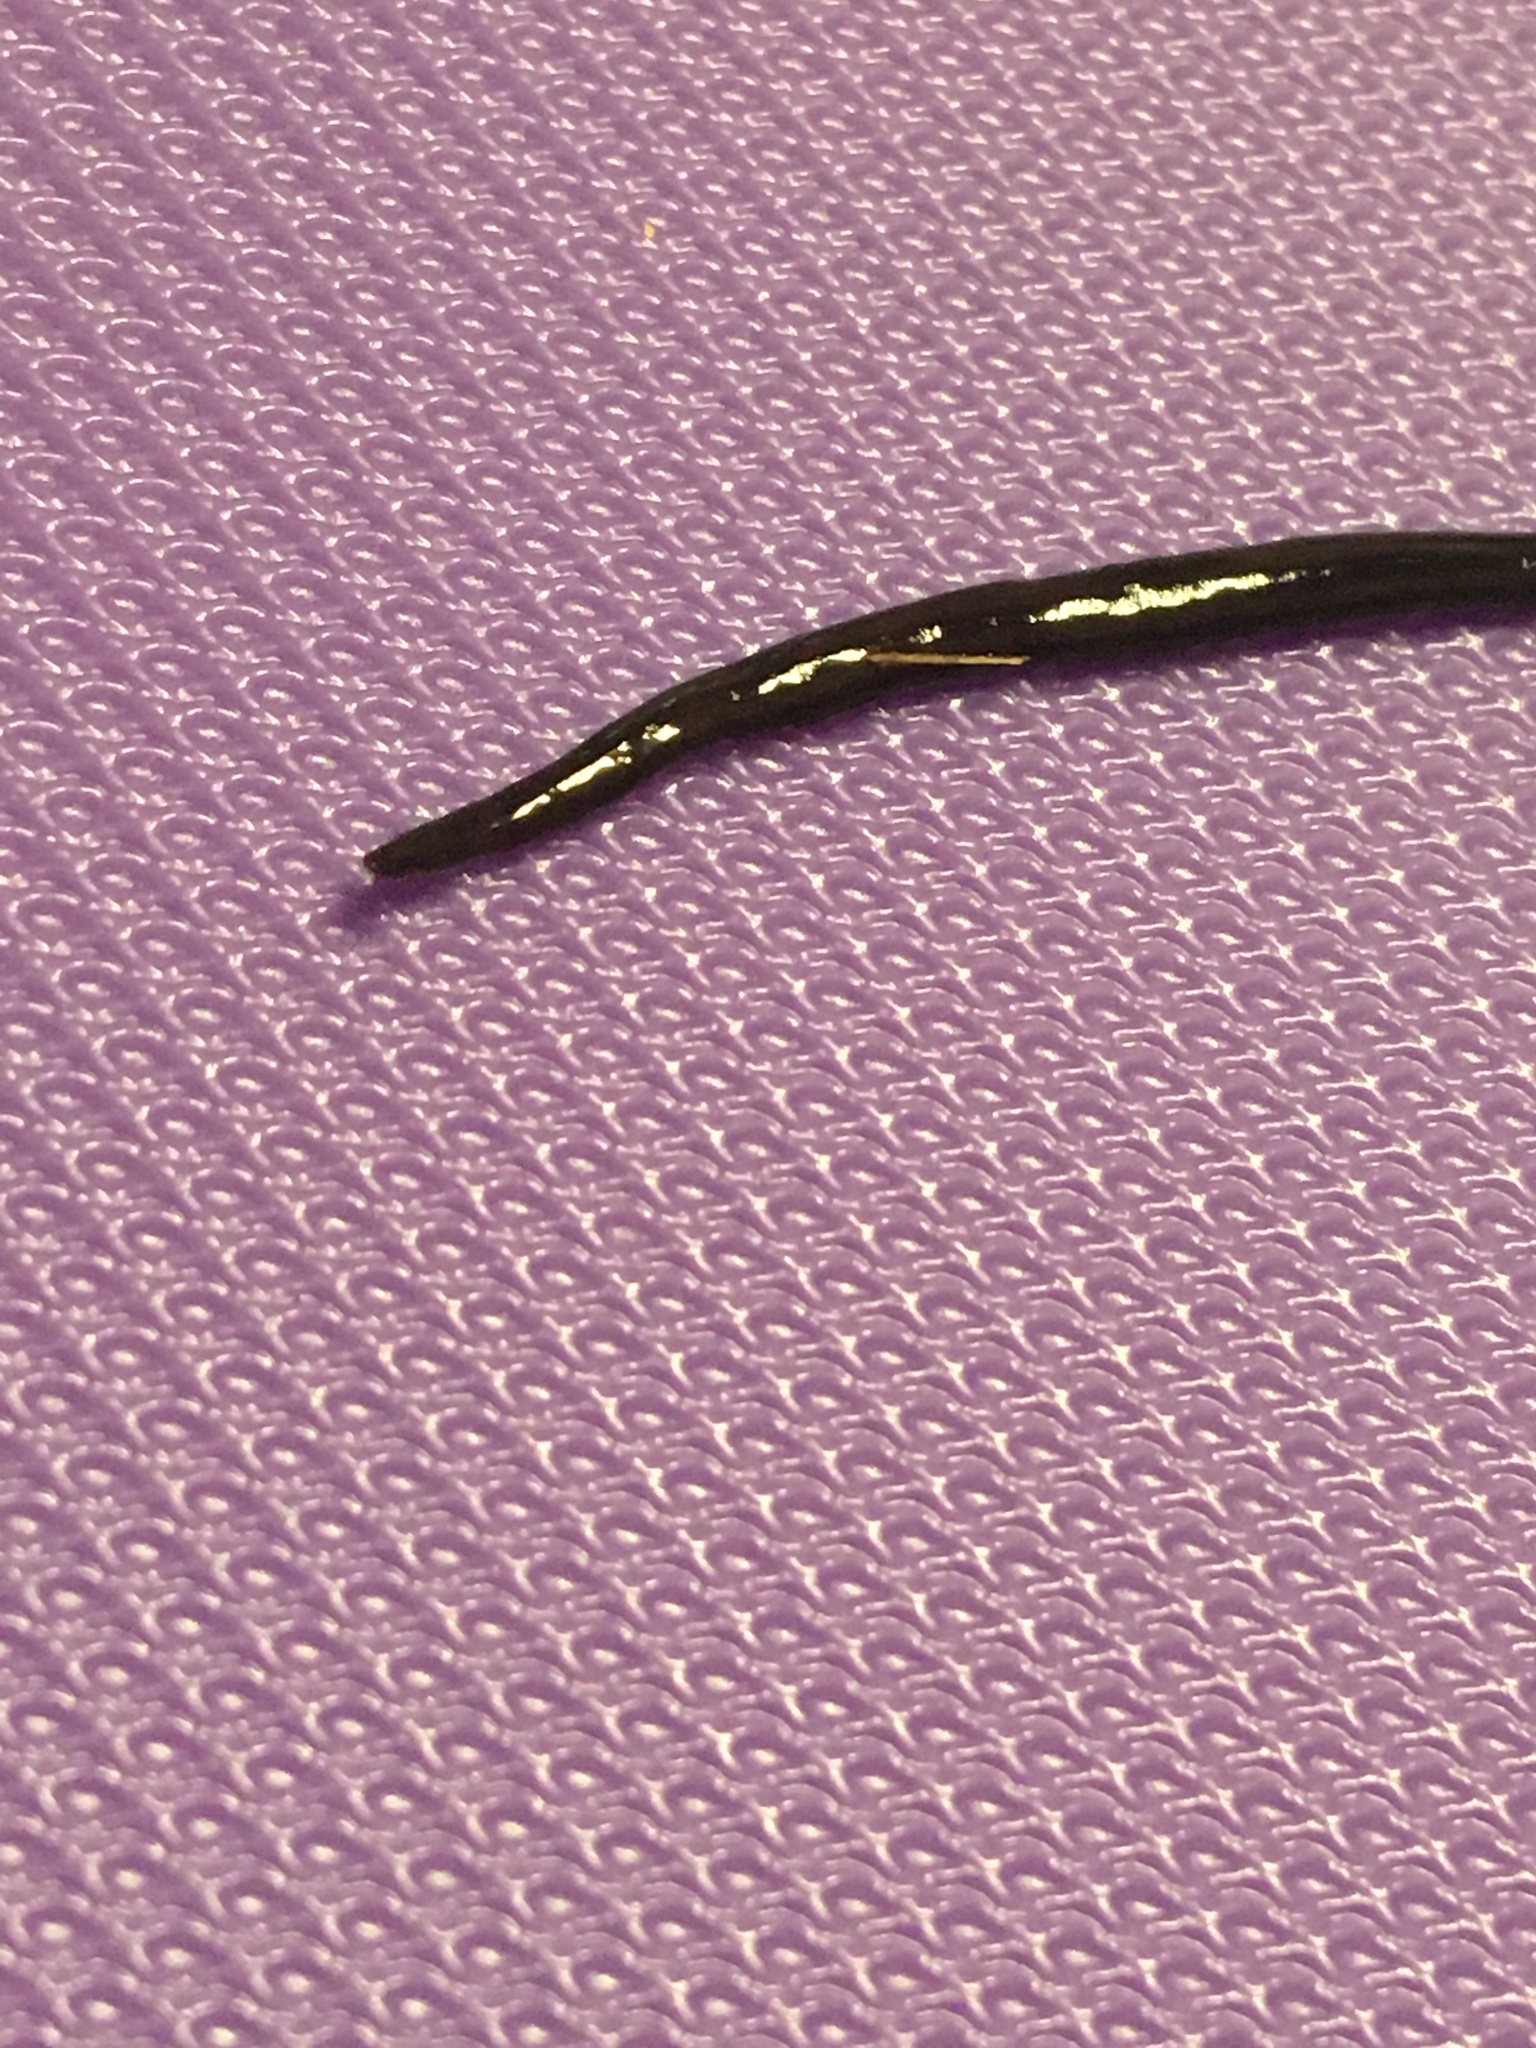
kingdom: Animalia
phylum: Platyhelminthes
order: Tricladida
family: Geoplanidae
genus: Dolichoplana
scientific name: Dolichoplana striata
